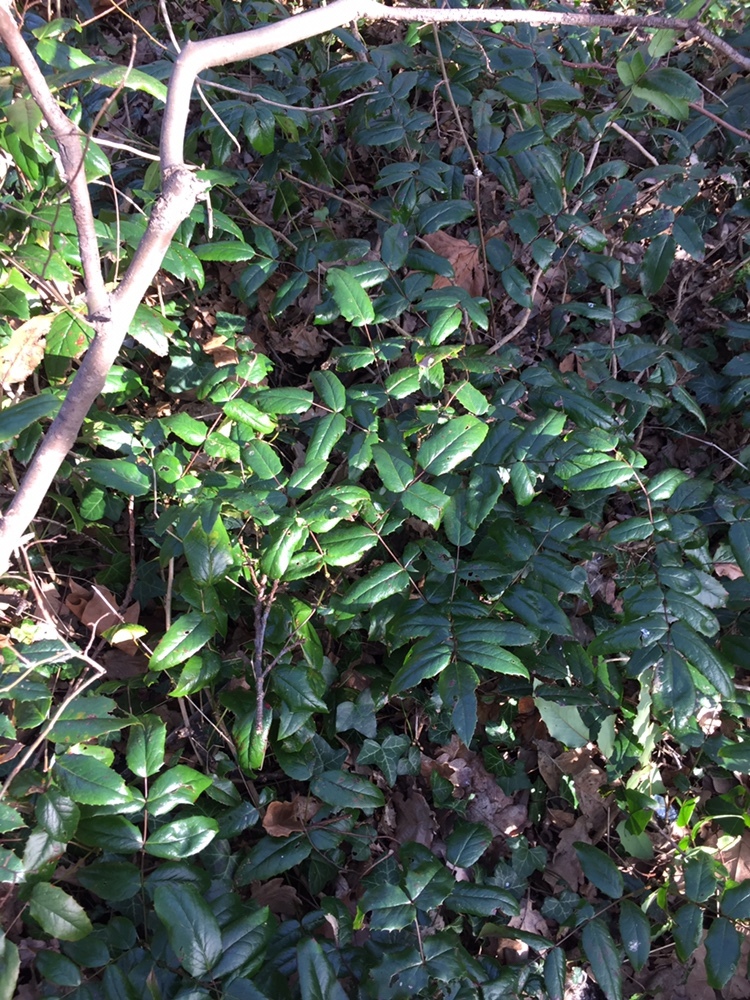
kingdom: Plantae
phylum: Tracheophyta
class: Magnoliopsida
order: Ranunculales
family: Berberidaceae
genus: Mahonia
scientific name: Mahonia aquifolium
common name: Oregon-grape
